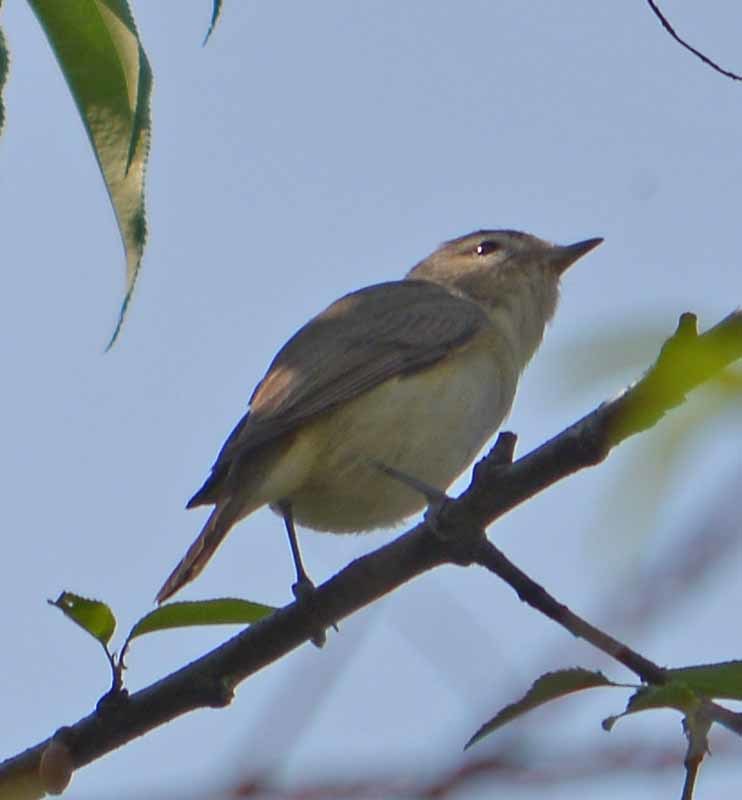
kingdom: Animalia
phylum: Chordata
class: Aves
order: Passeriformes
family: Vireonidae
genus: Vireo
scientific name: Vireo gilvus
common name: Warbling vireo
